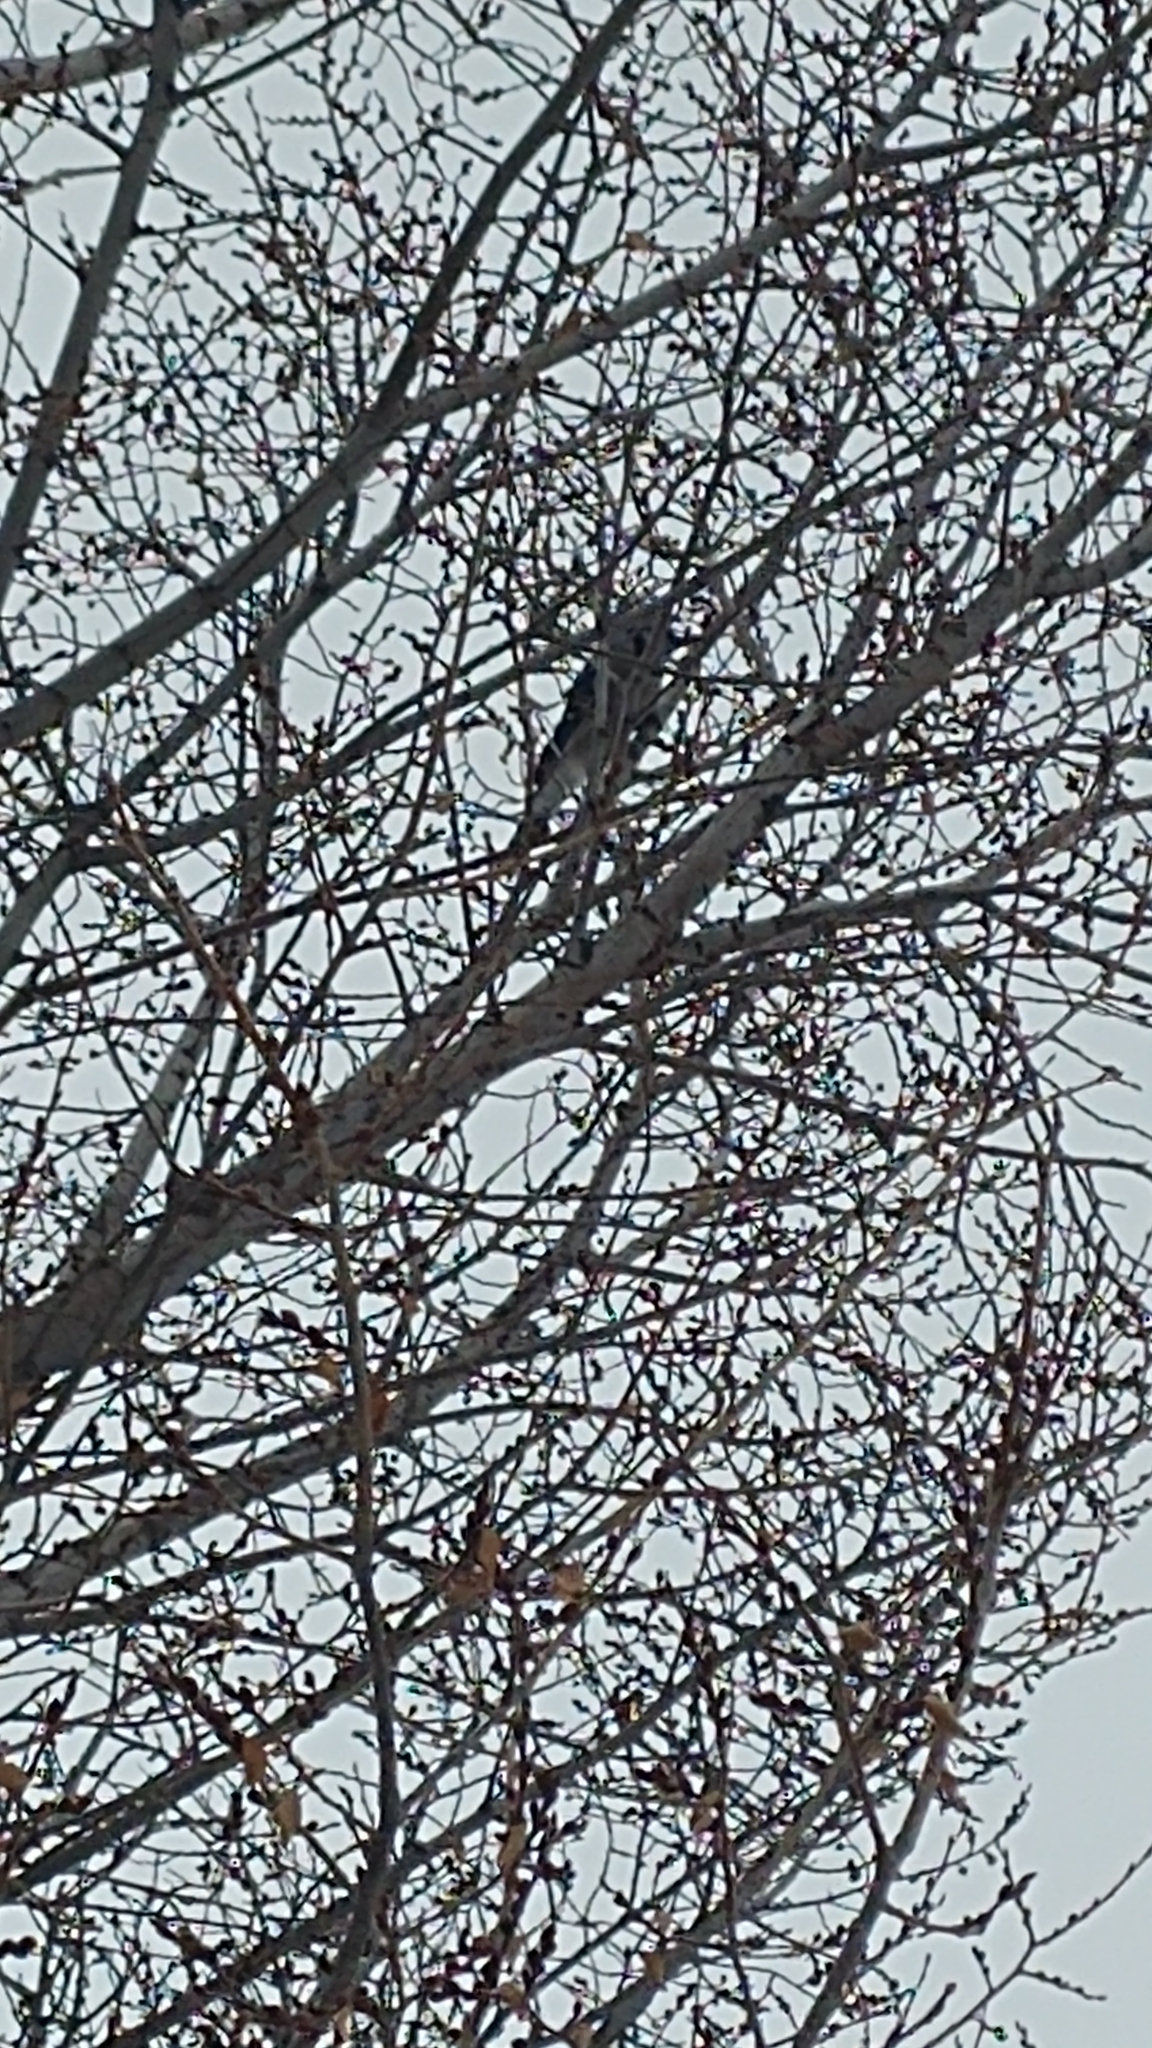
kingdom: Animalia
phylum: Chordata
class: Aves
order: Passeriformes
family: Corvidae
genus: Cyanocitta
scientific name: Cyanocitta cristata
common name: Blue jay
